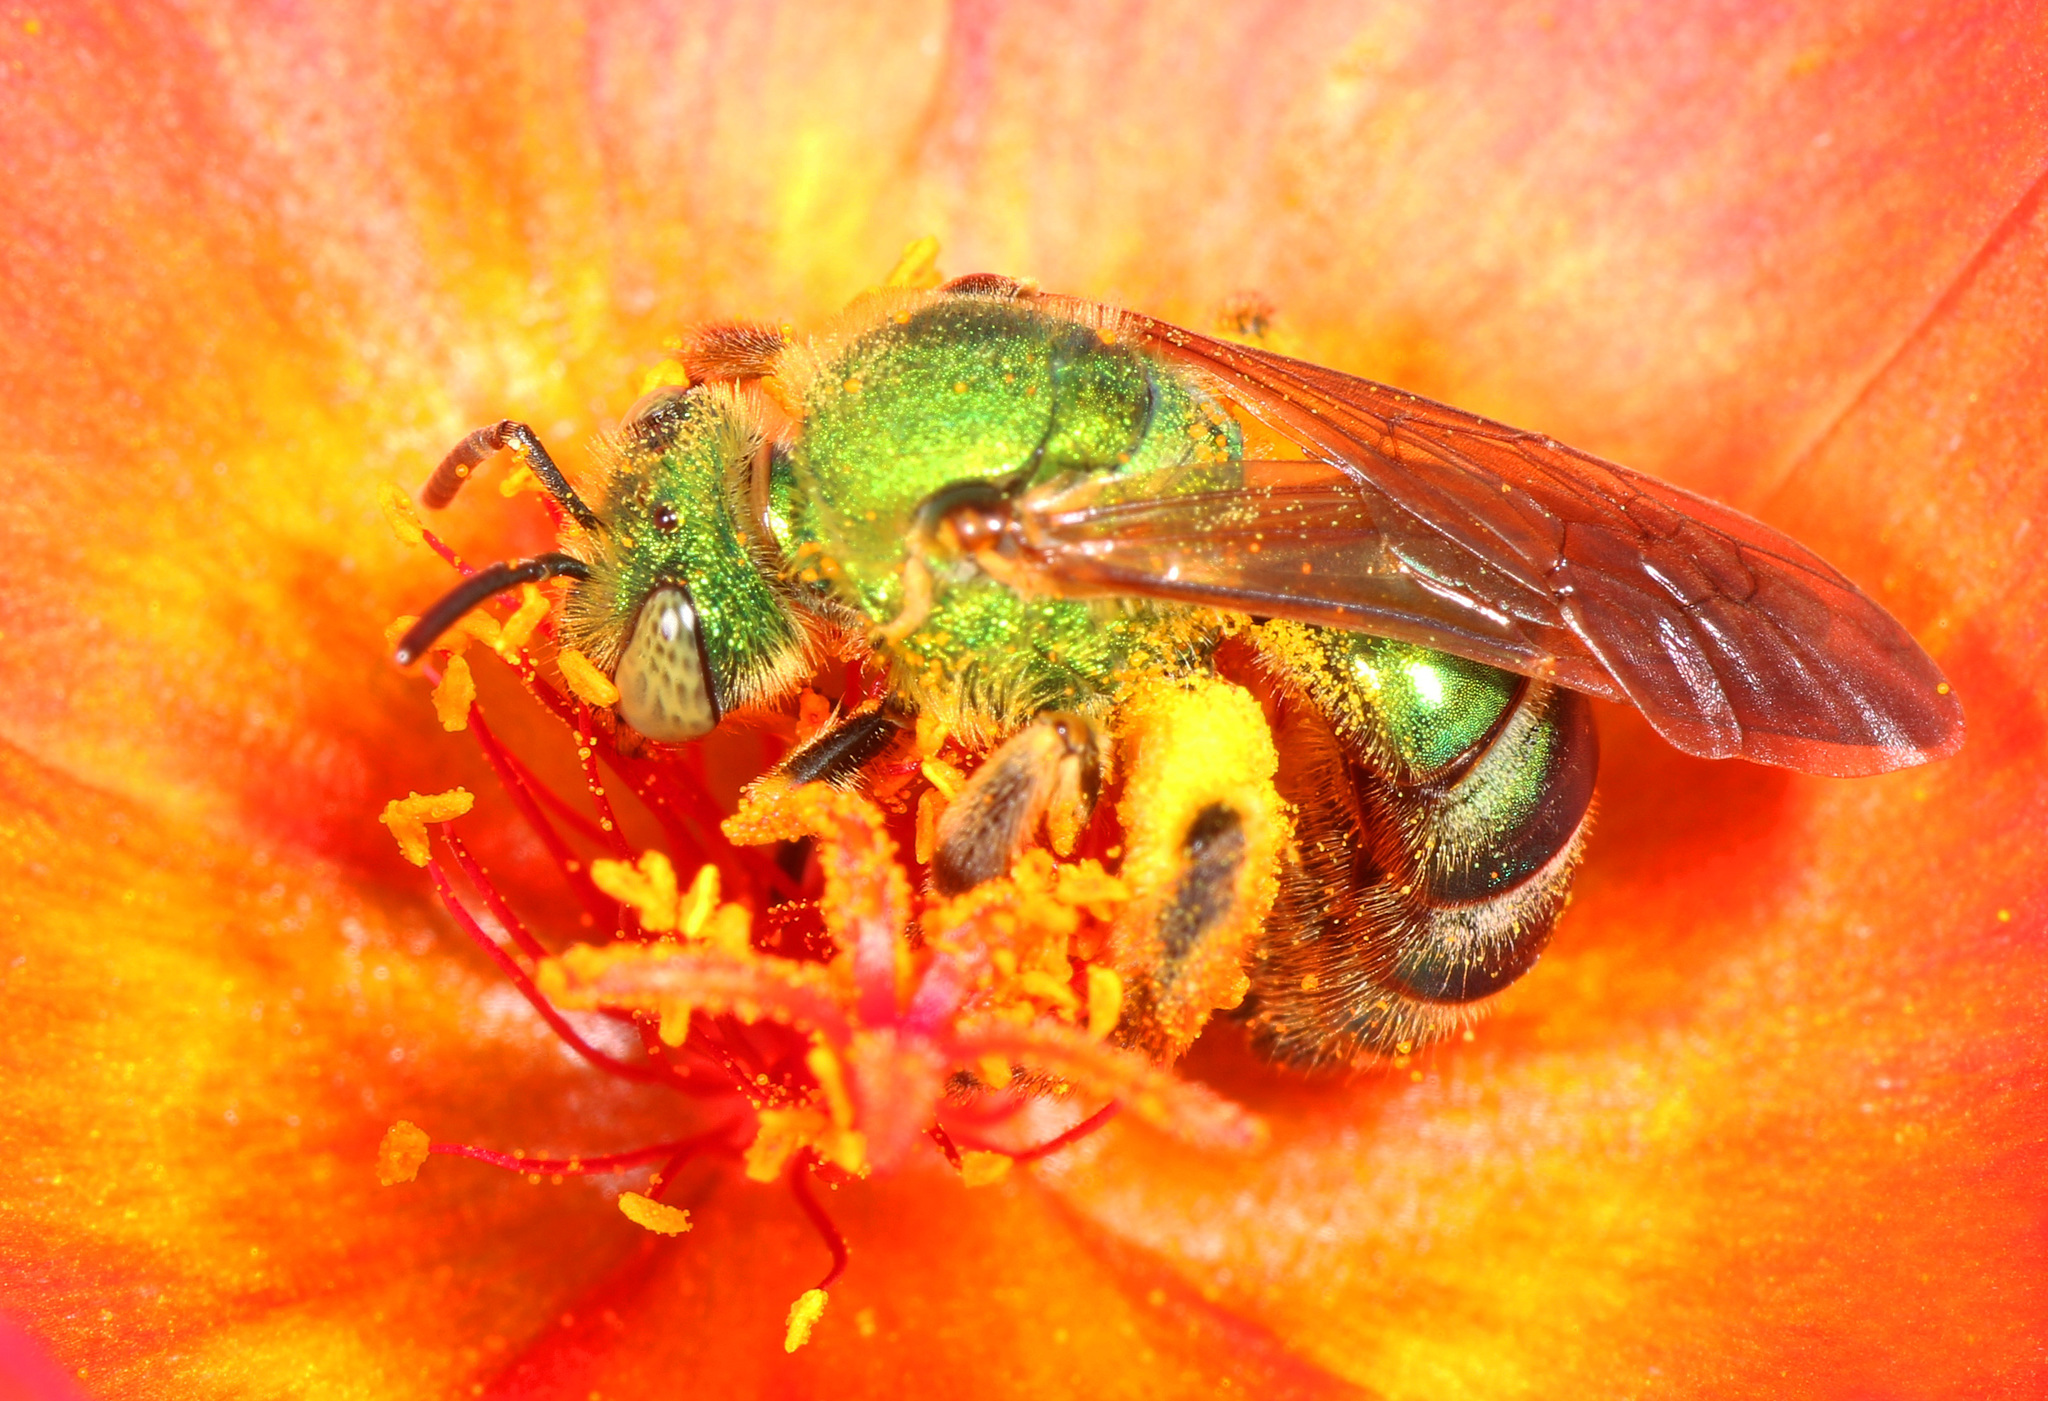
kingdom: Animalia
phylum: Arthropoda
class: Insecta
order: Hymenoptera
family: Halictidae
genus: Agapostemon
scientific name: Agapostemon splendens
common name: Brown-winged striped sweat bee
